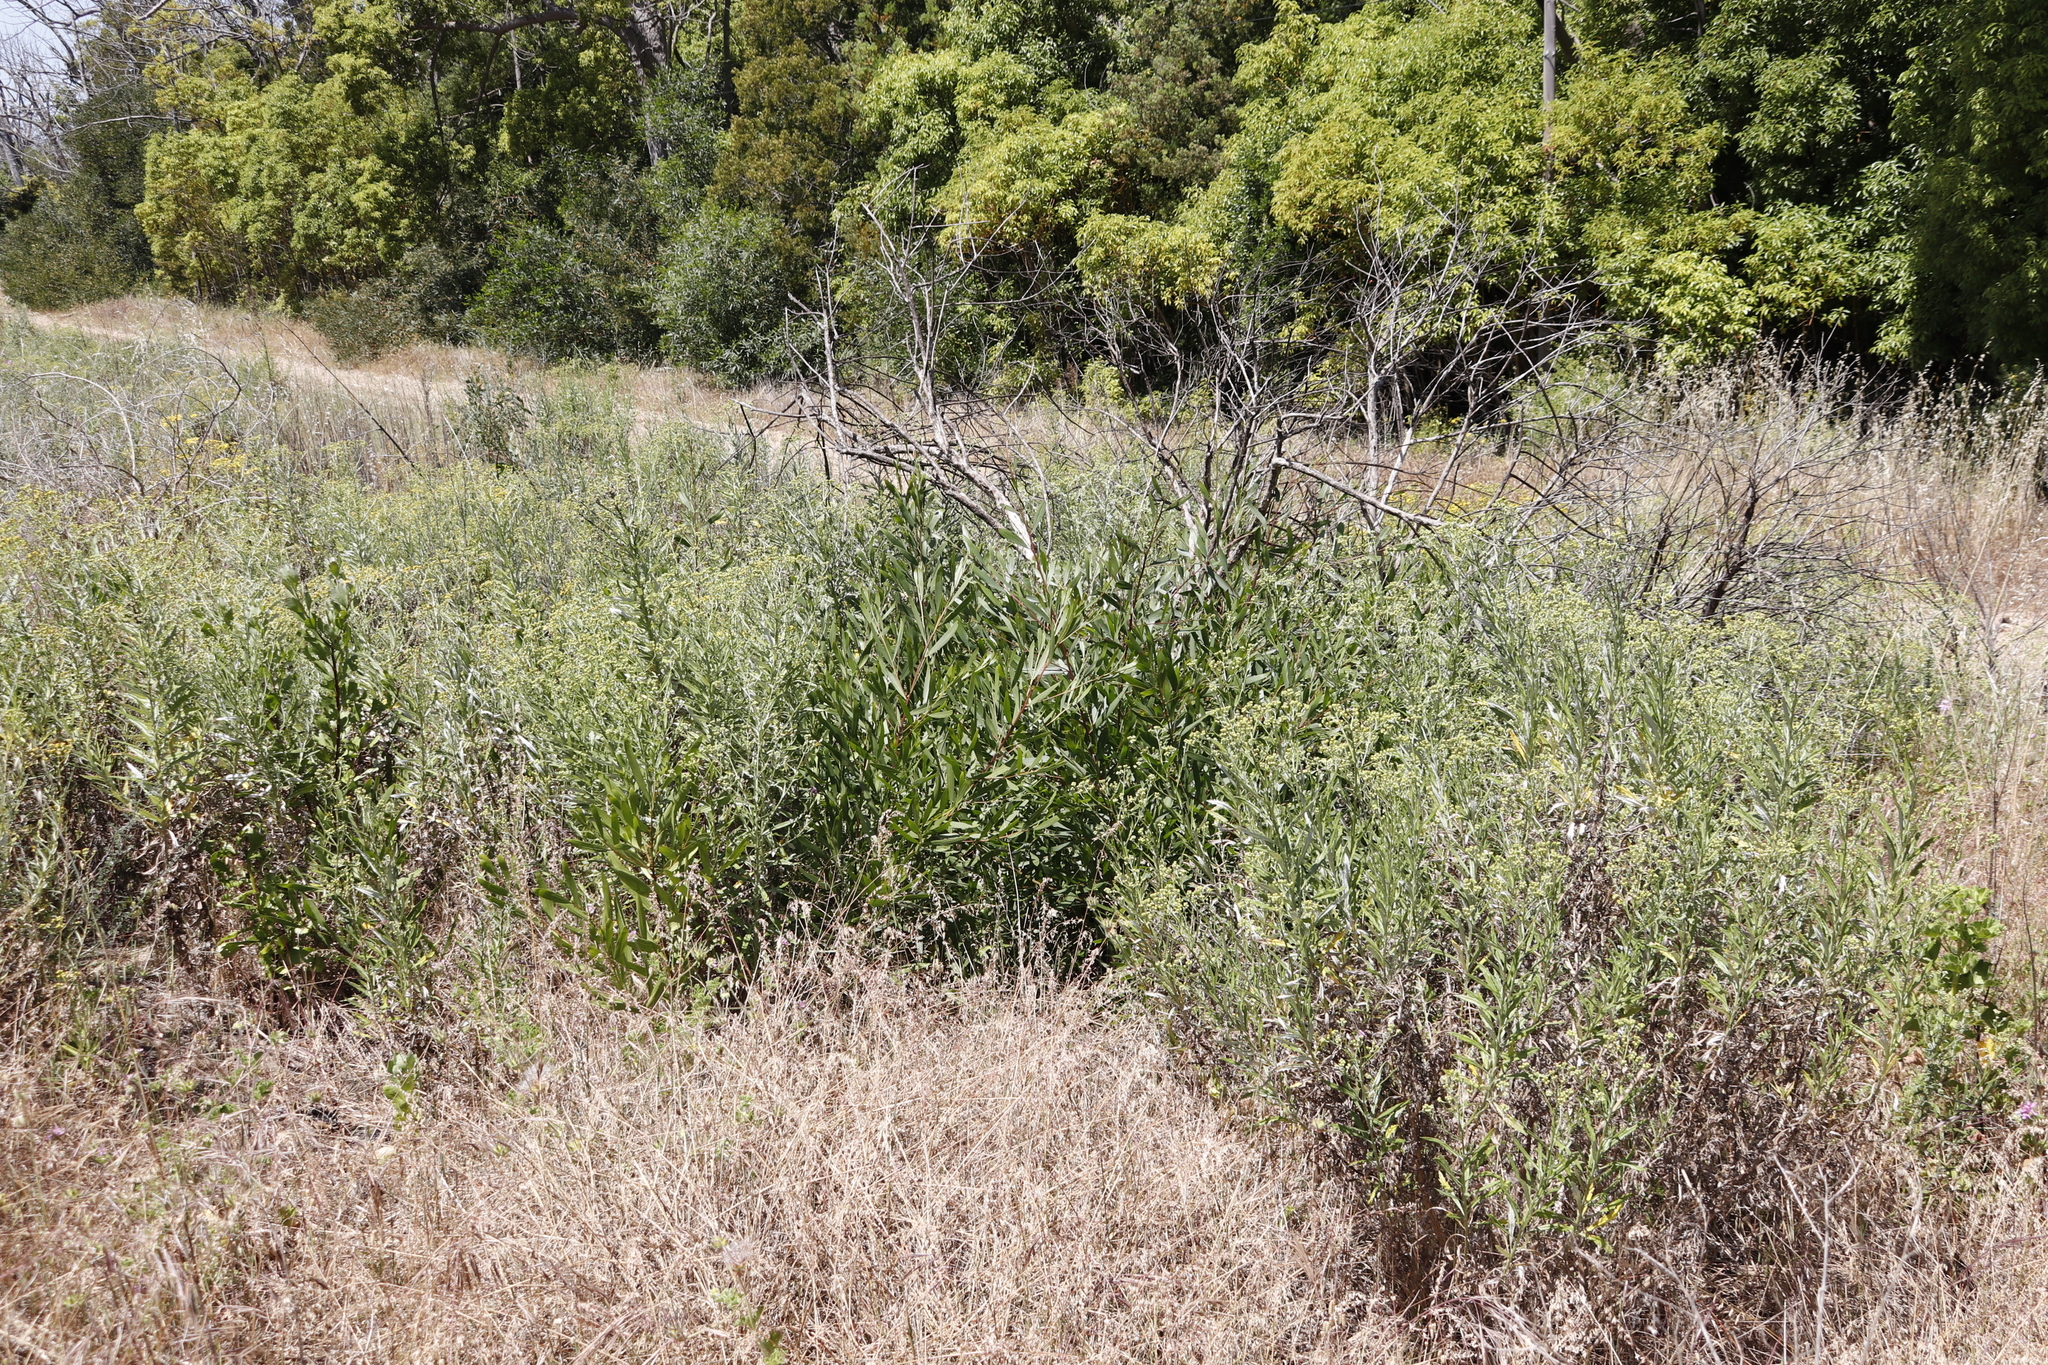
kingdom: Plantae
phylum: Tracheophyta
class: Magnoliopsida
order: Fabales
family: Fabaceae
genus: Acacia
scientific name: Acacia saligna
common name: Orange wattle
